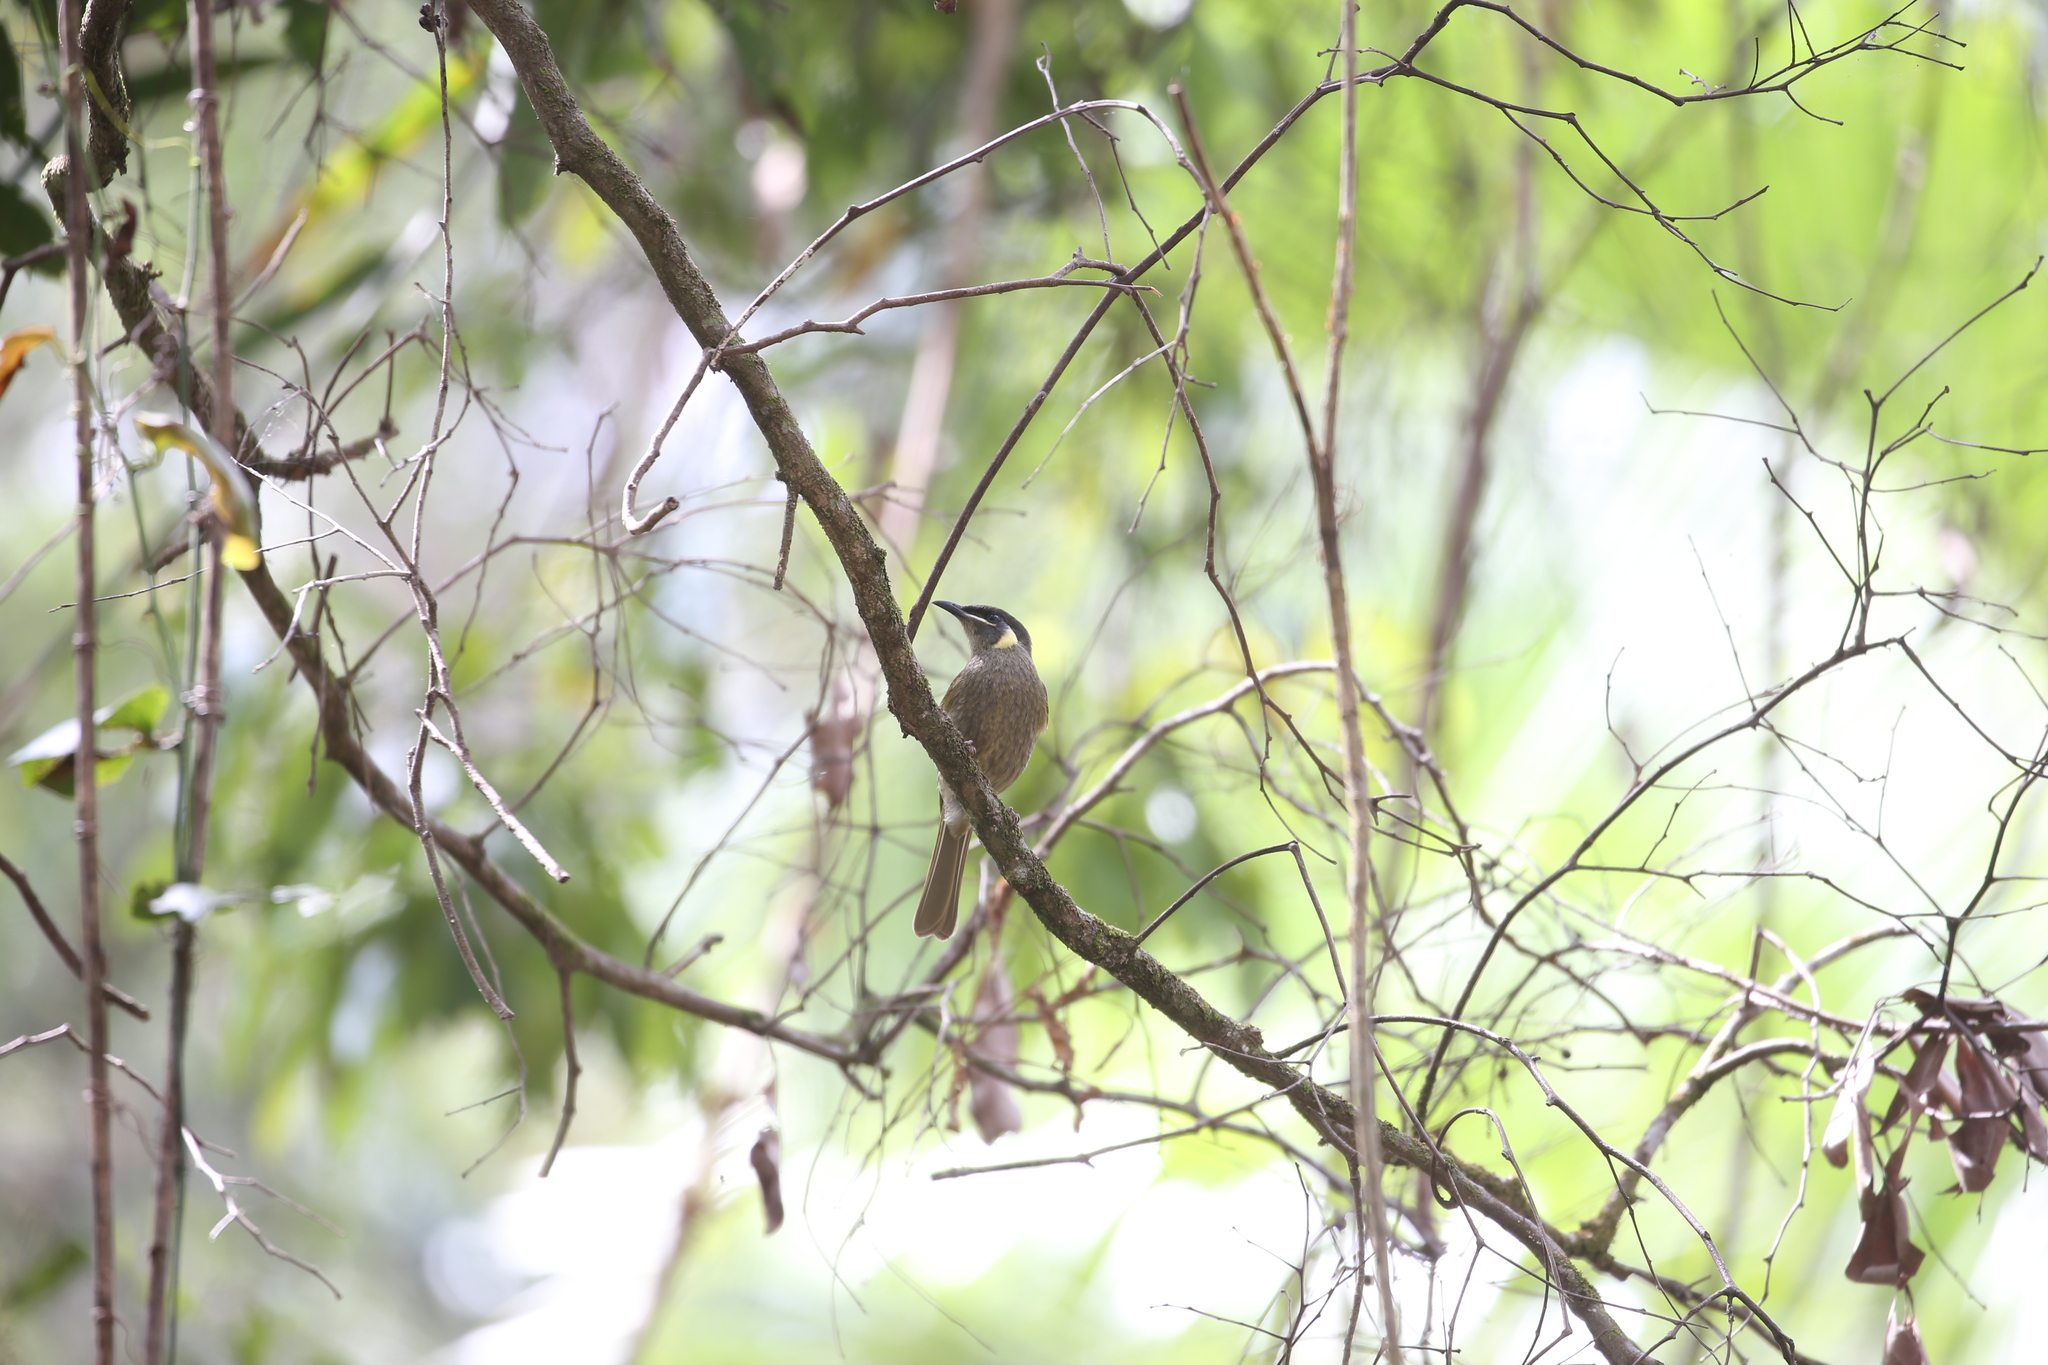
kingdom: Animalia
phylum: Chordata
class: Aves
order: Passeriformes
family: Meliphagidae
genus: Meliphaga
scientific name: Meliphaga lewinii
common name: Lewin's honeyeater
